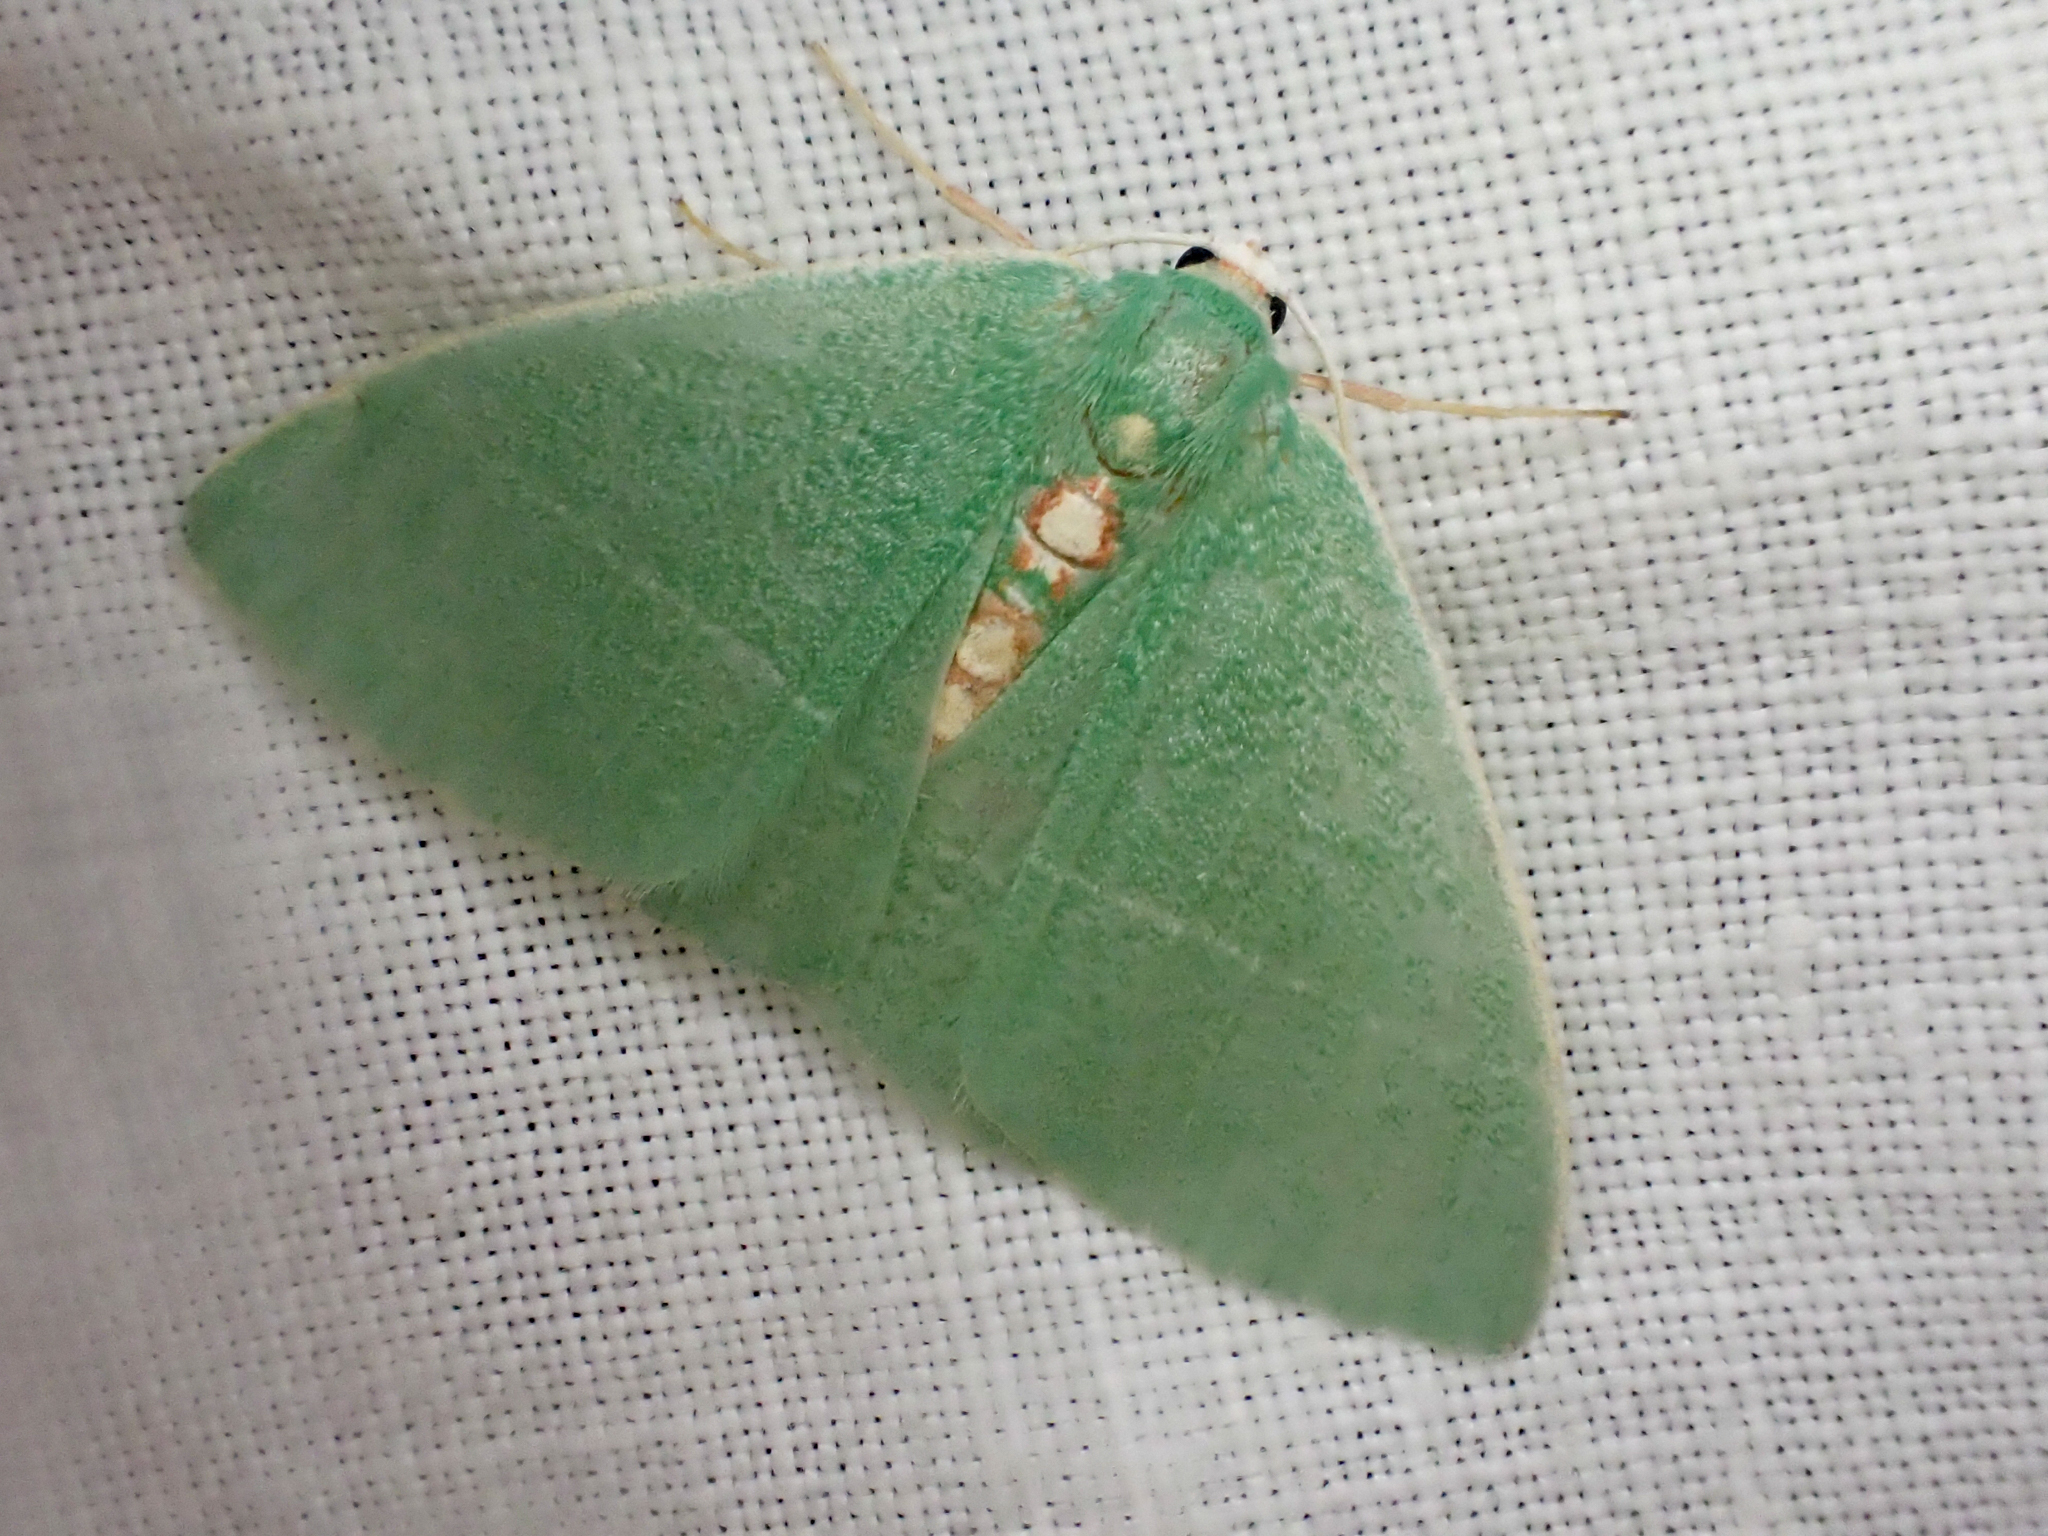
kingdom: Animalia
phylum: Arthropoda
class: Insecta
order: Lepidoptera
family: Geometridae
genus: Nemoria
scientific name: Nemoria glaucomarginaria
